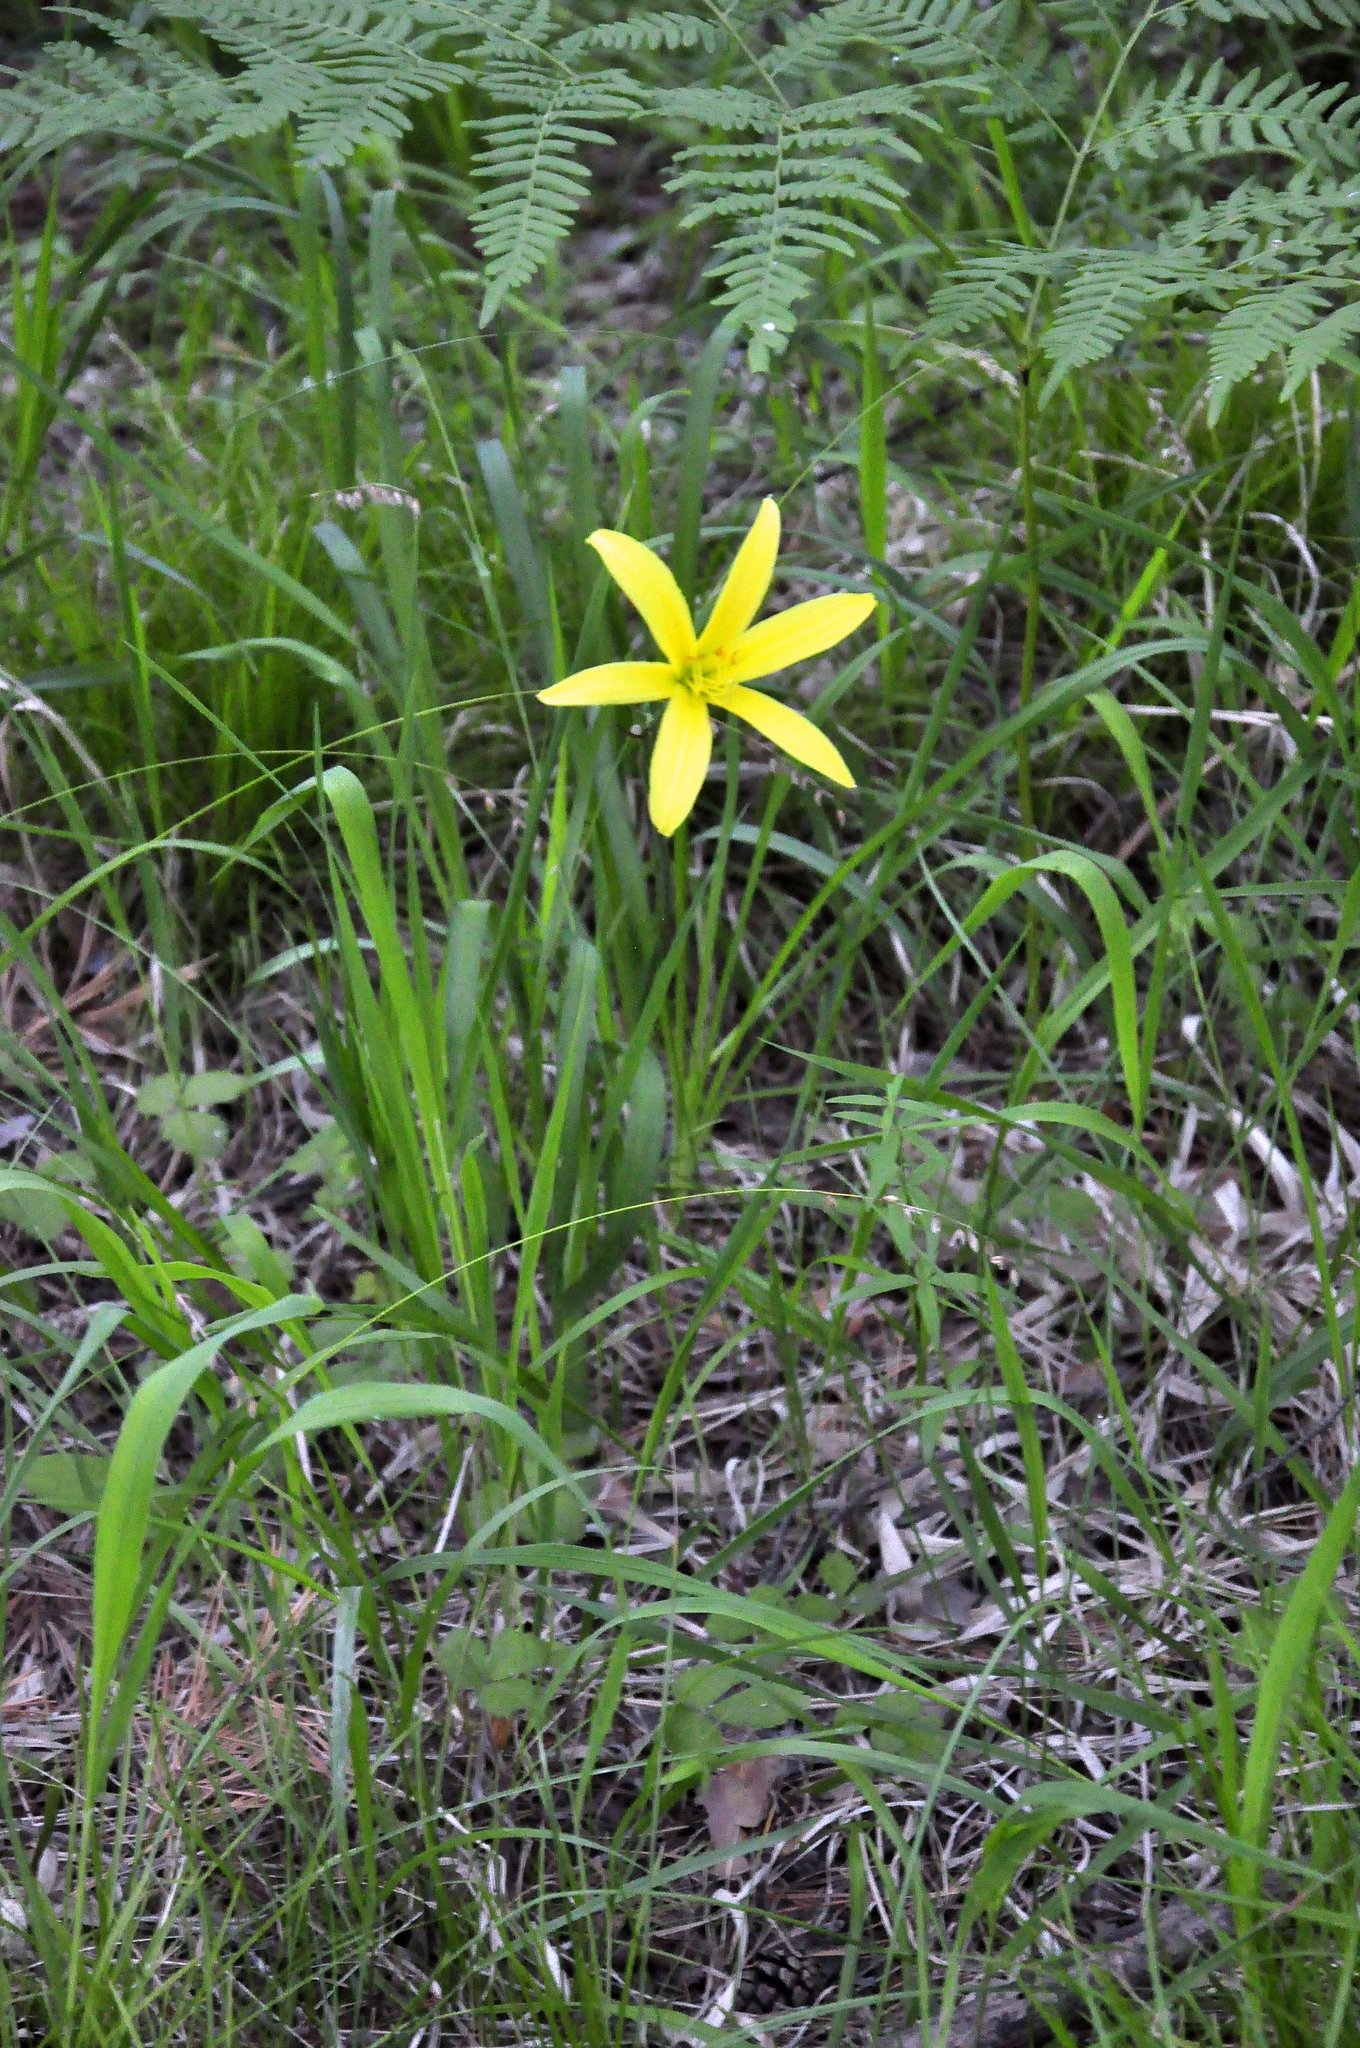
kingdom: Plantae
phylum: Tracheophyta
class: Liliopsida
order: Asparagales
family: Asphodelaceae
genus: Hemerocallis
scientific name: Hemerocallis minor
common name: Small daylily
